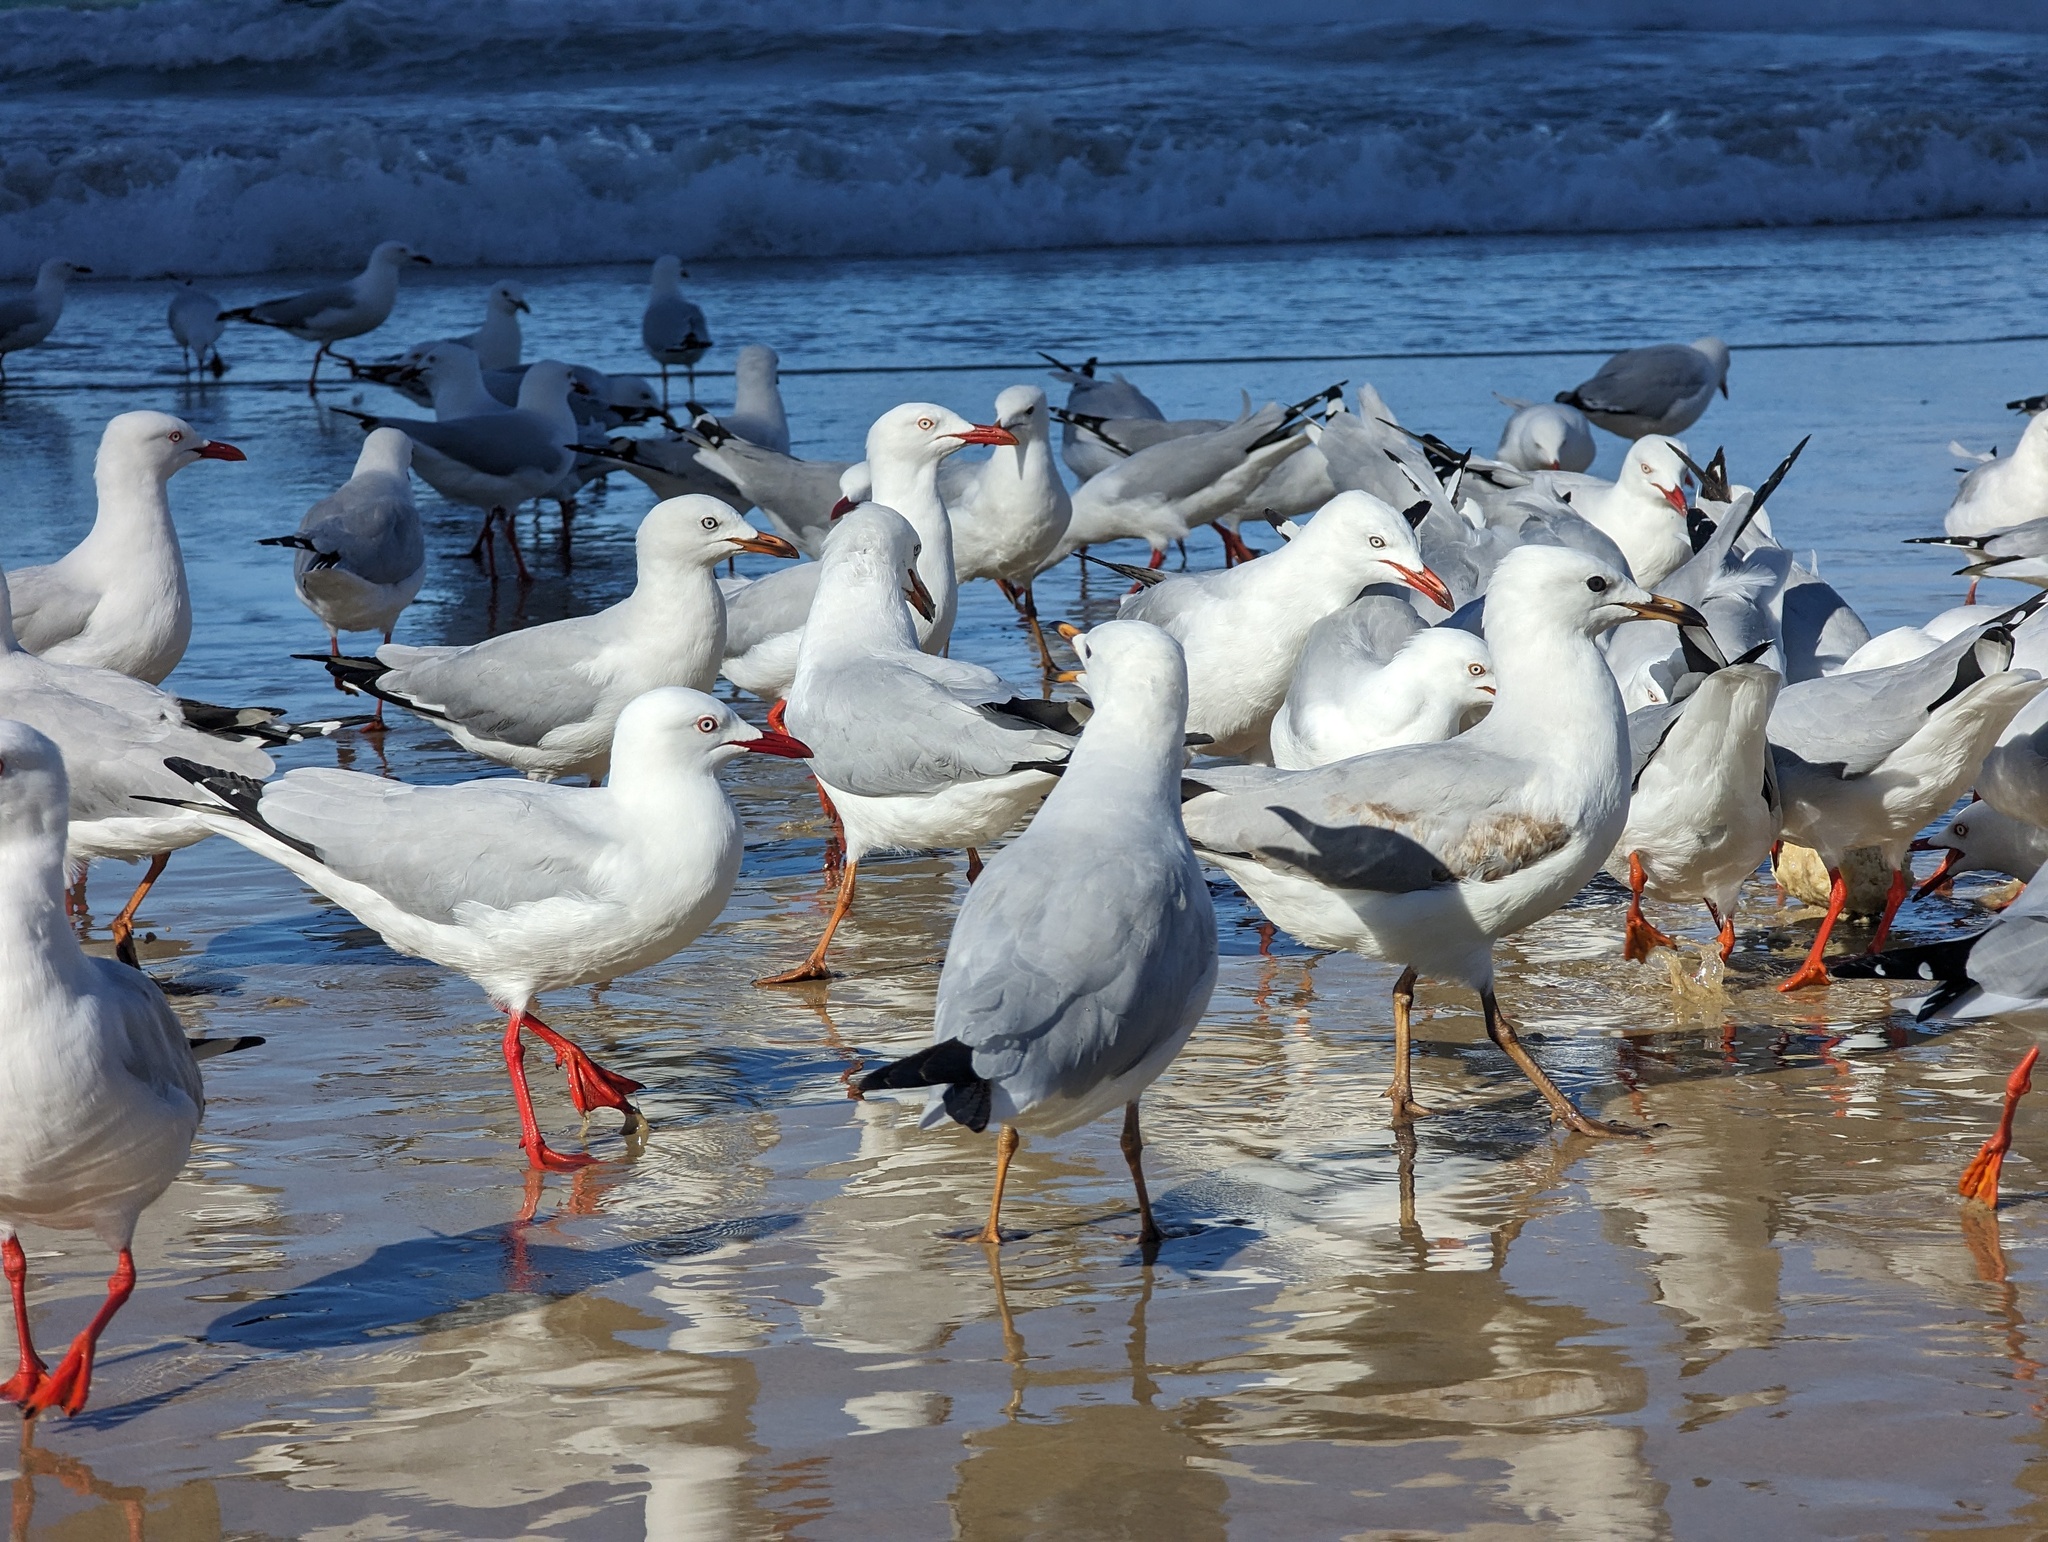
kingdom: Animalia
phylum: Chordata
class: Aves
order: Charadriiformes
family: Laridae
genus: Chroicocephalus
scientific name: Chroicocephalus novaehollandiae
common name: Silver gull
